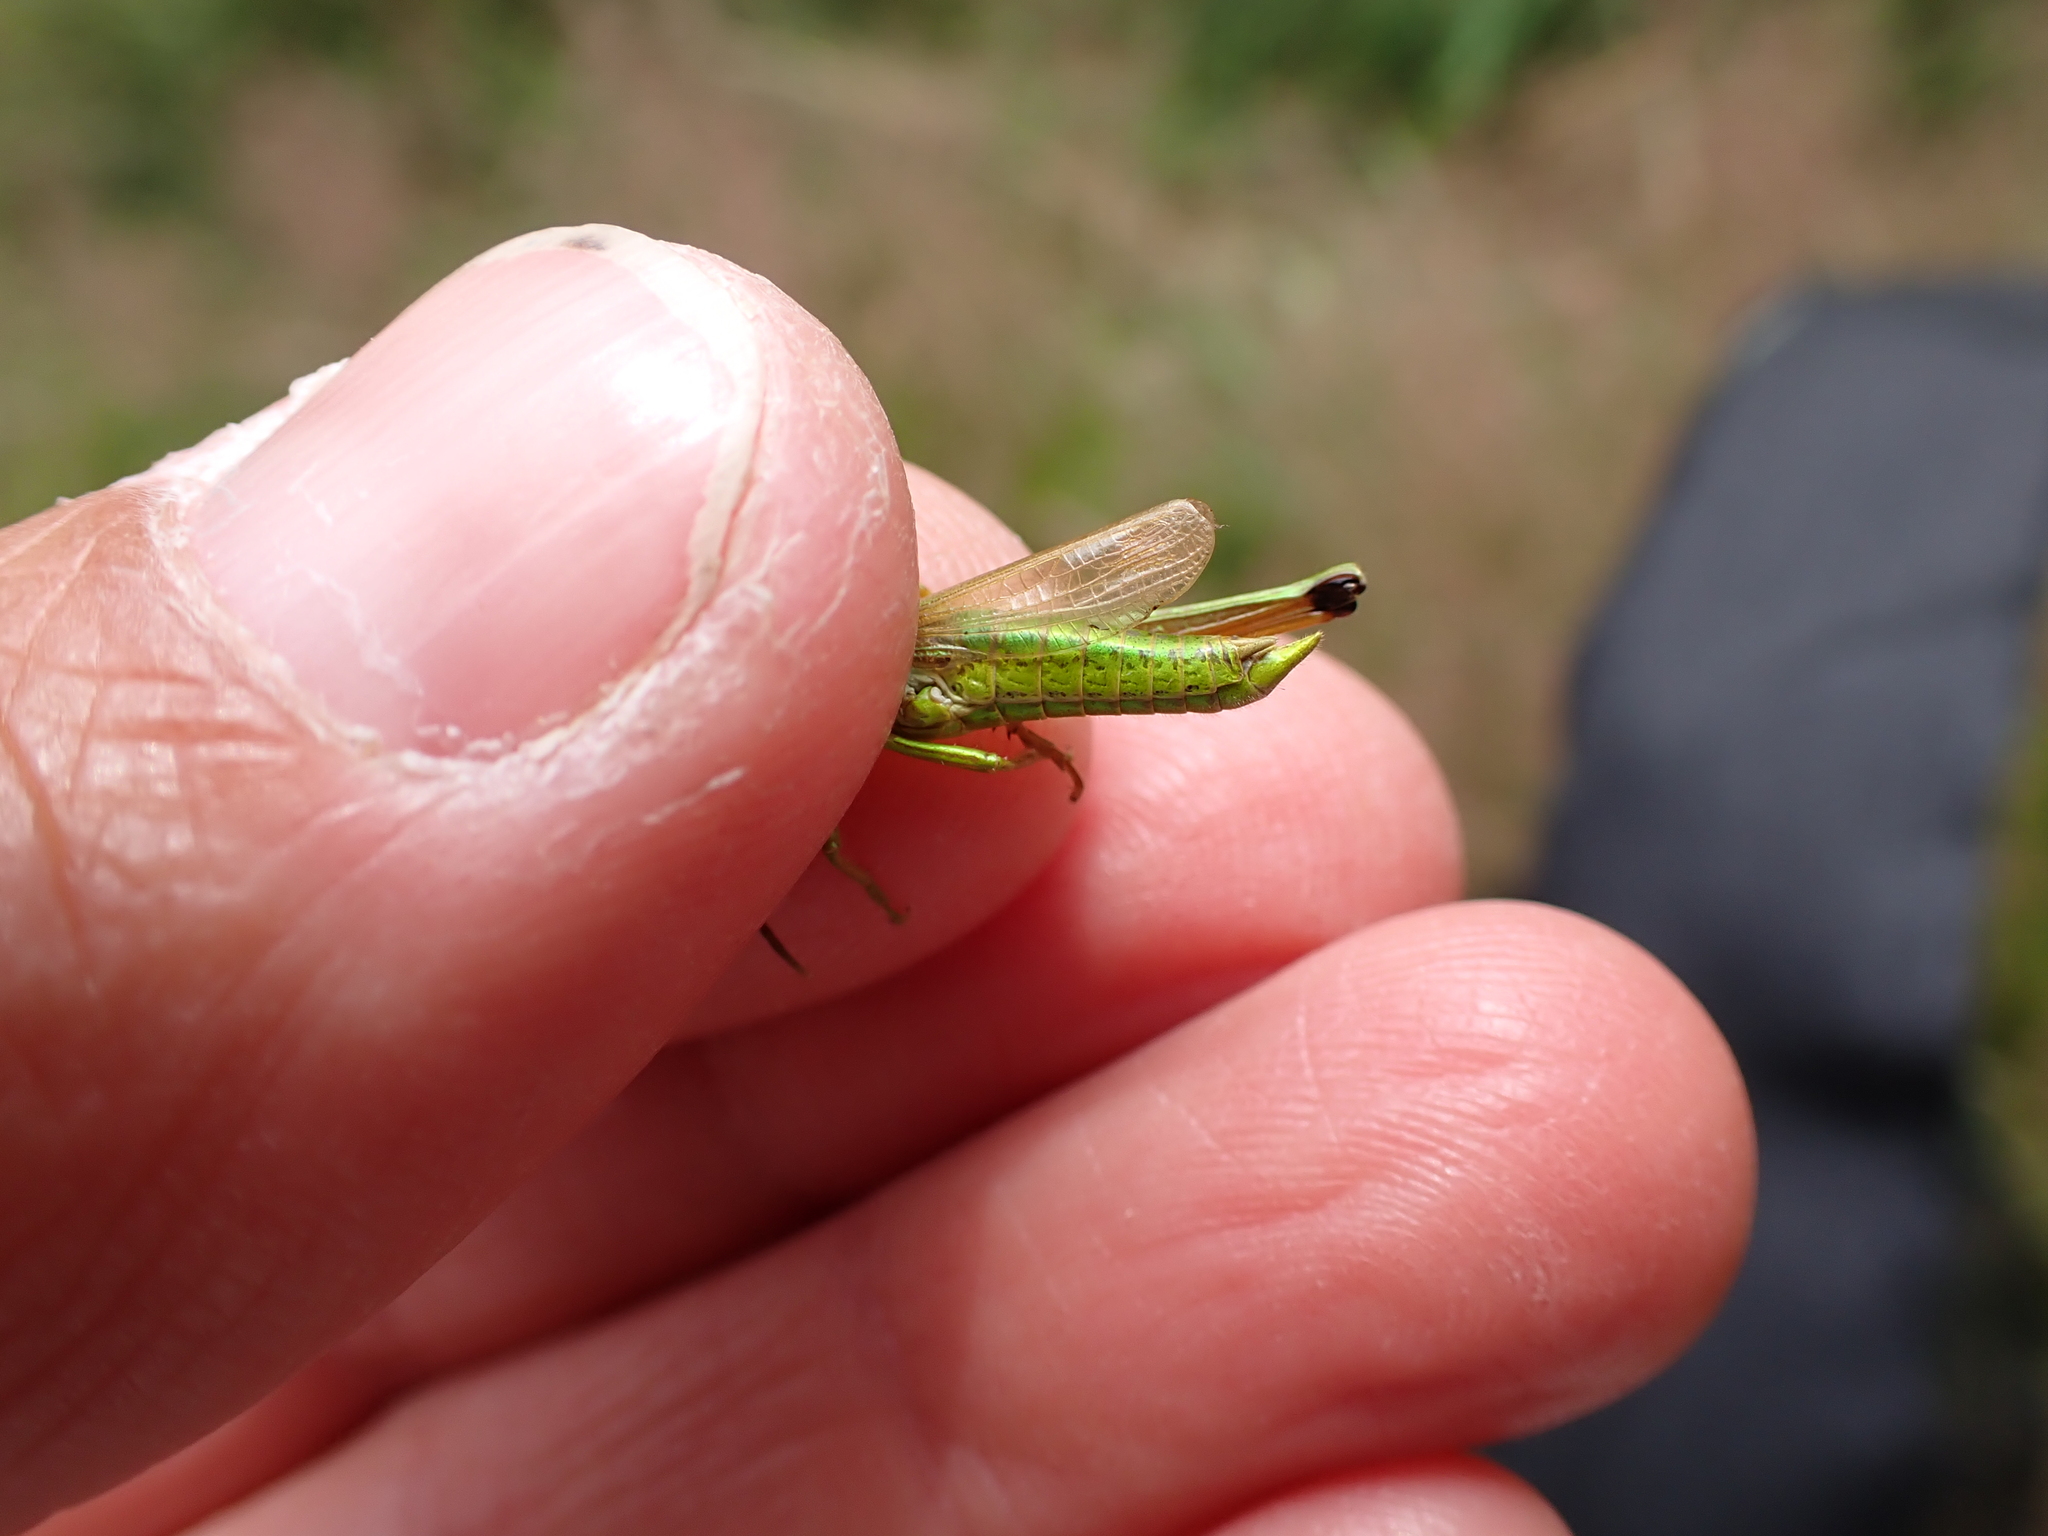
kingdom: Animalia
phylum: Arthropoda
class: Insecta
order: Orthoptera
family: Acrididae
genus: Chrysochraon
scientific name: Chrysochraon dispar
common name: Large gold grasshopper
